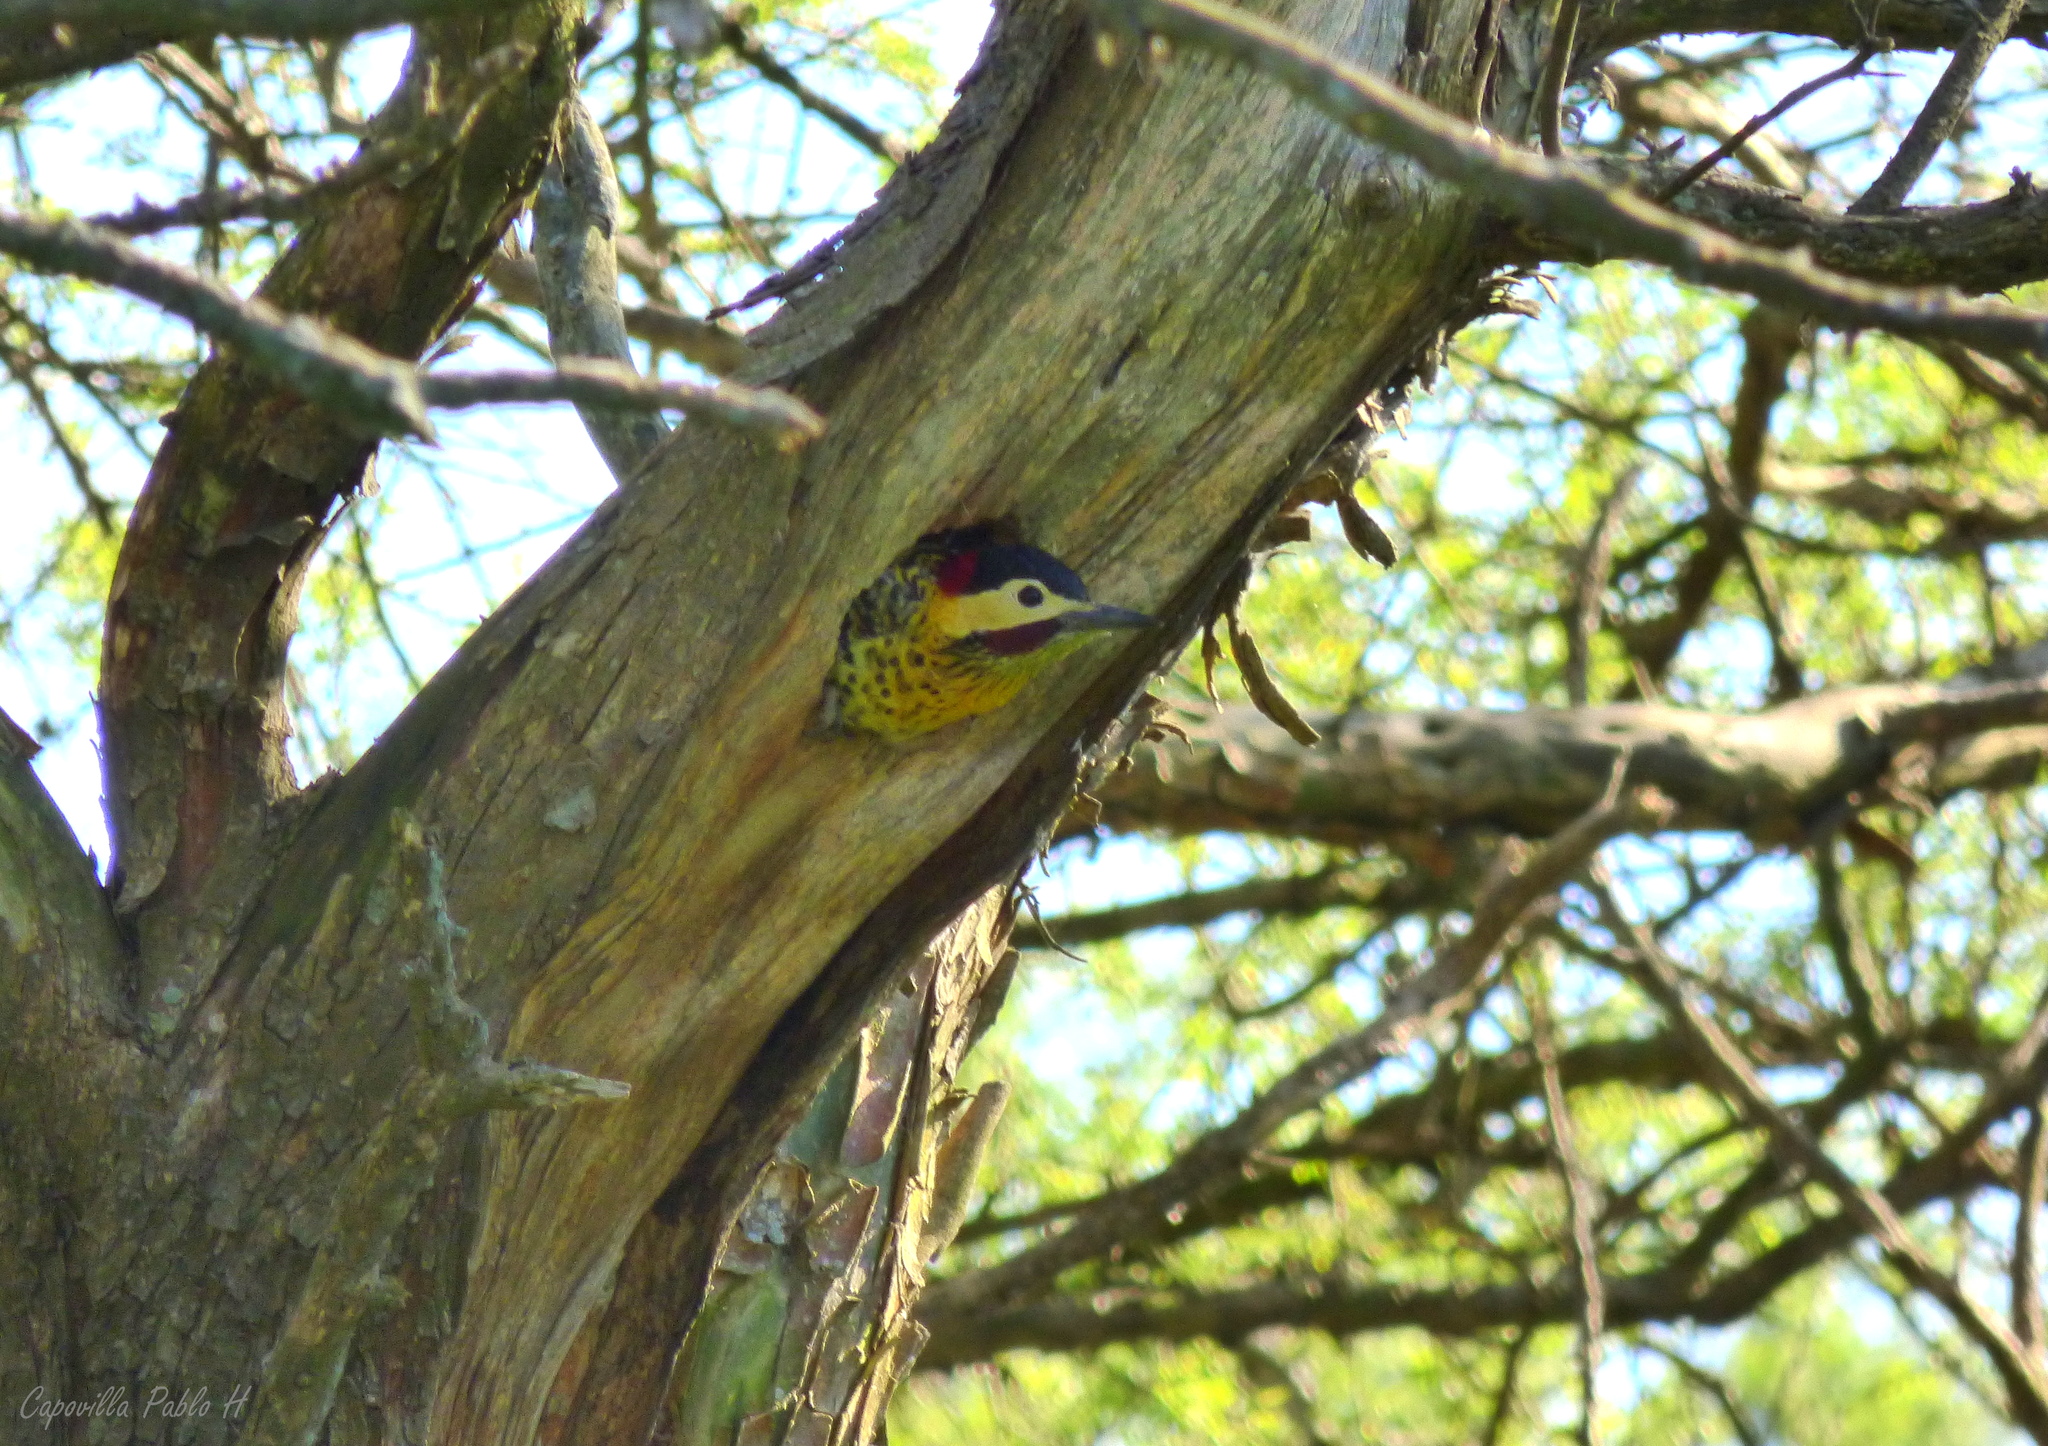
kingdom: Animalia
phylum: Chordata
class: Aves
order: Piciformes
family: Picidae
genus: Colaptes
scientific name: Colaptes melanochloros
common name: Green-barred woodpecker
